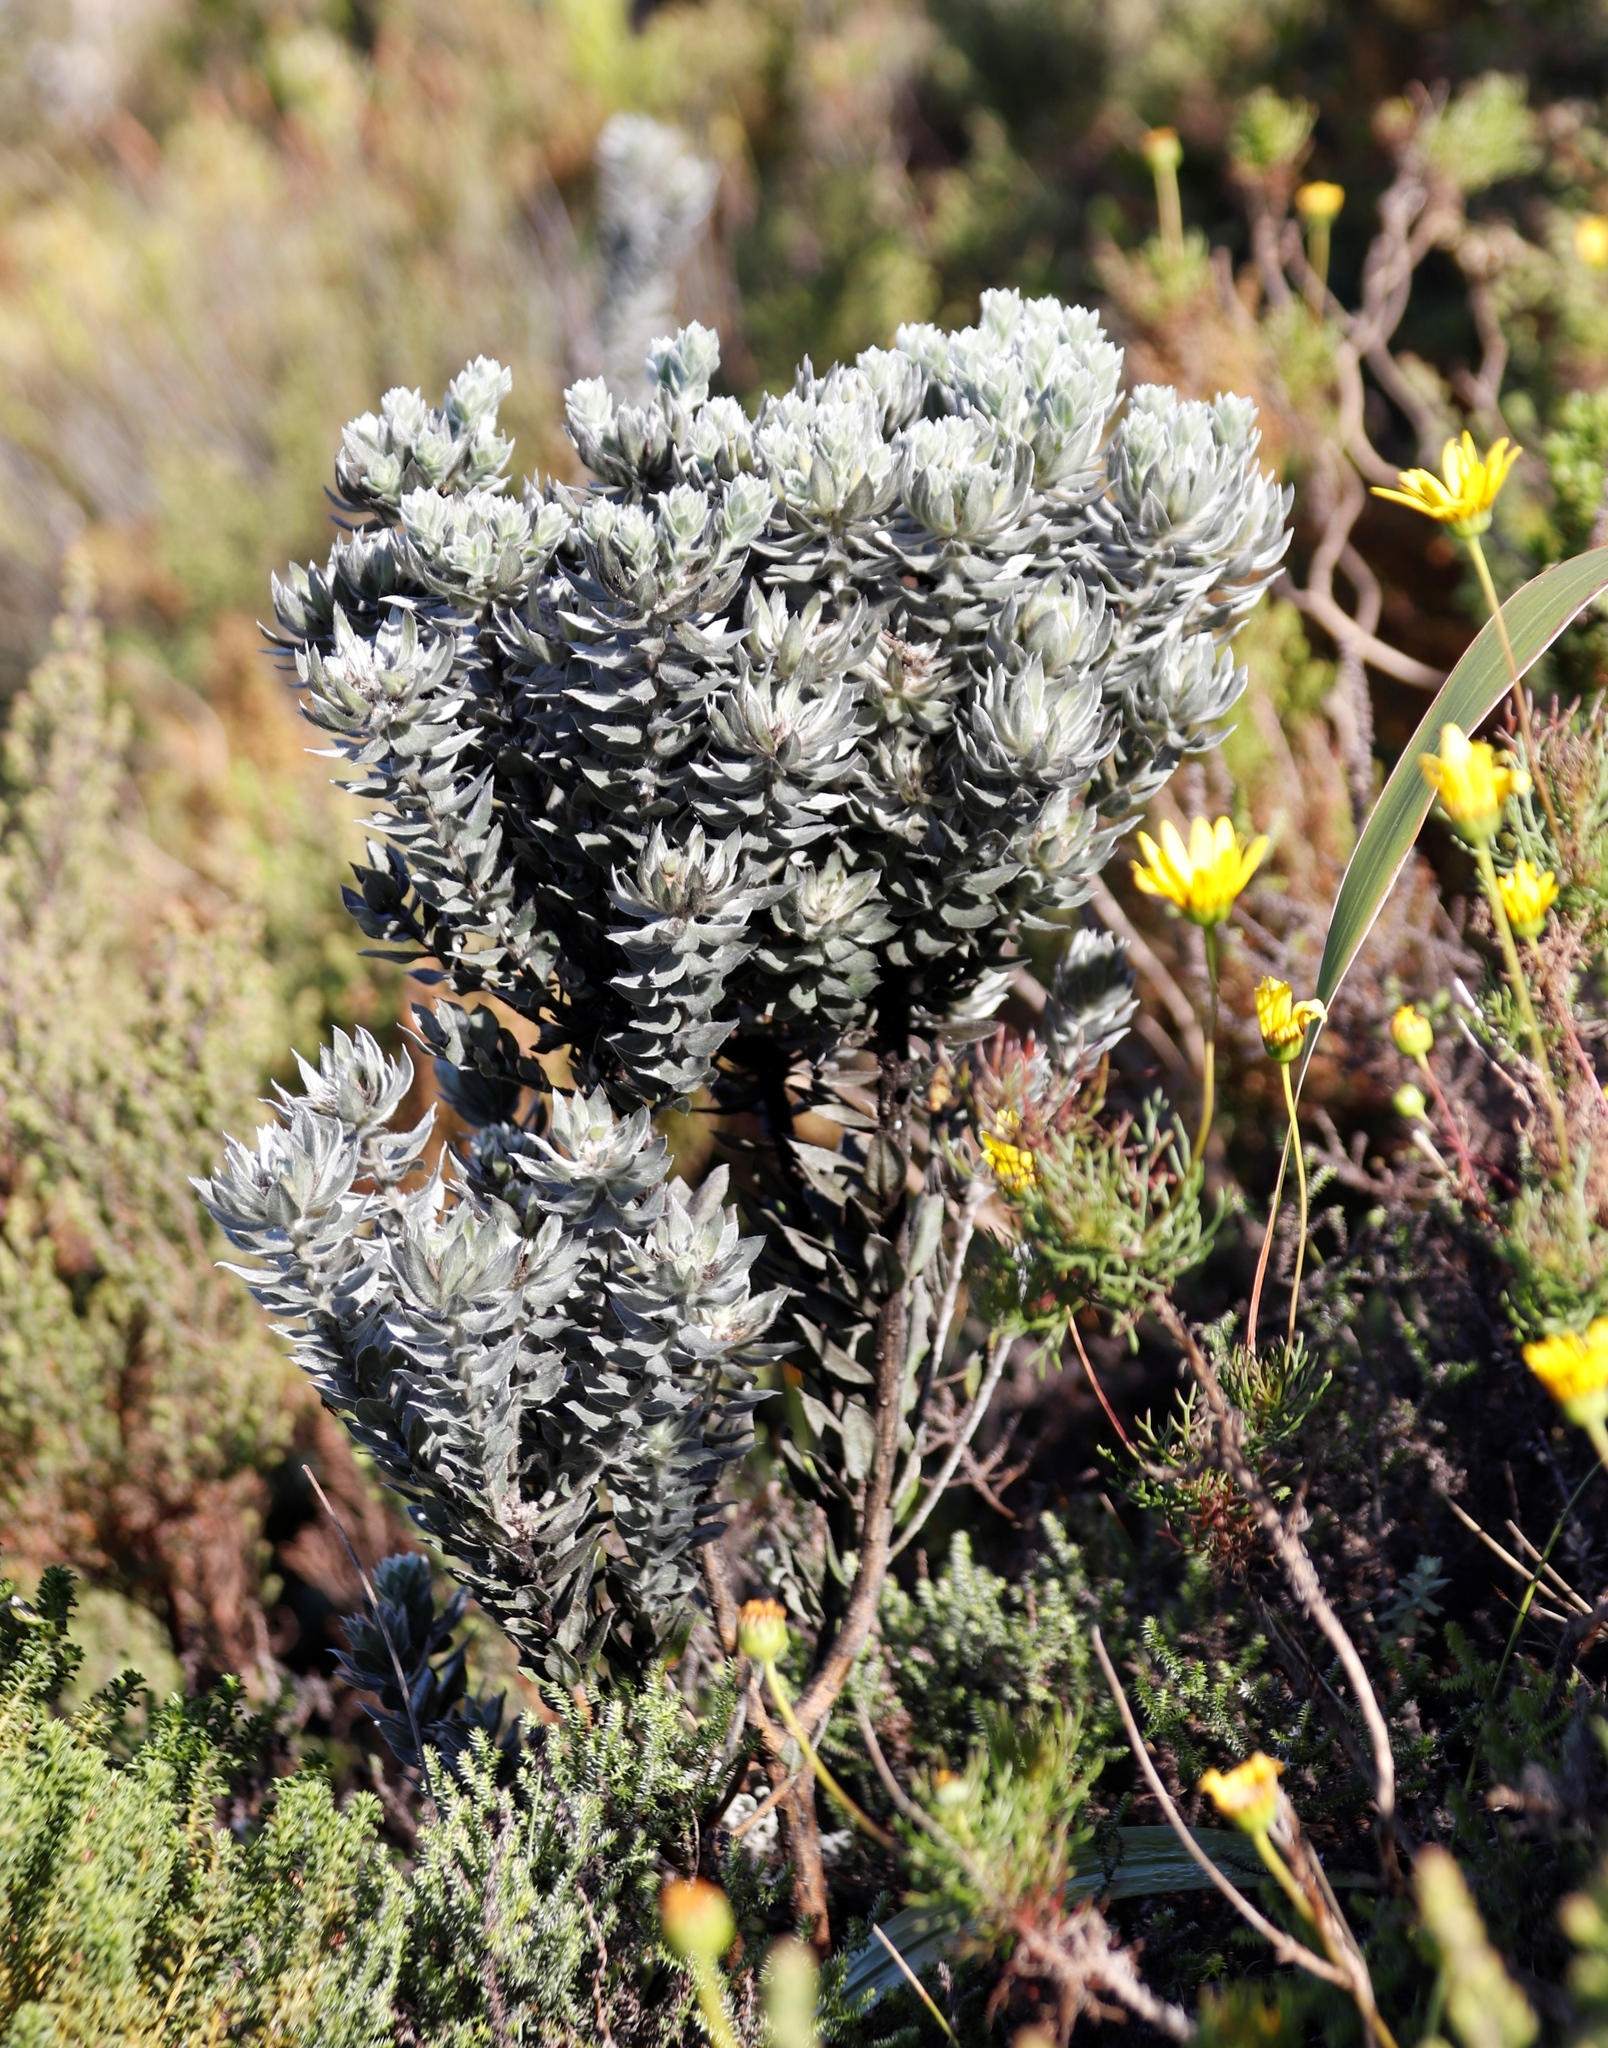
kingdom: Plantae
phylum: Tracheophyta
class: Magnoliopsida
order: Fabales
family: Fabaceae
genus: Xiphotheca
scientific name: Xiphotheca fruticosa
